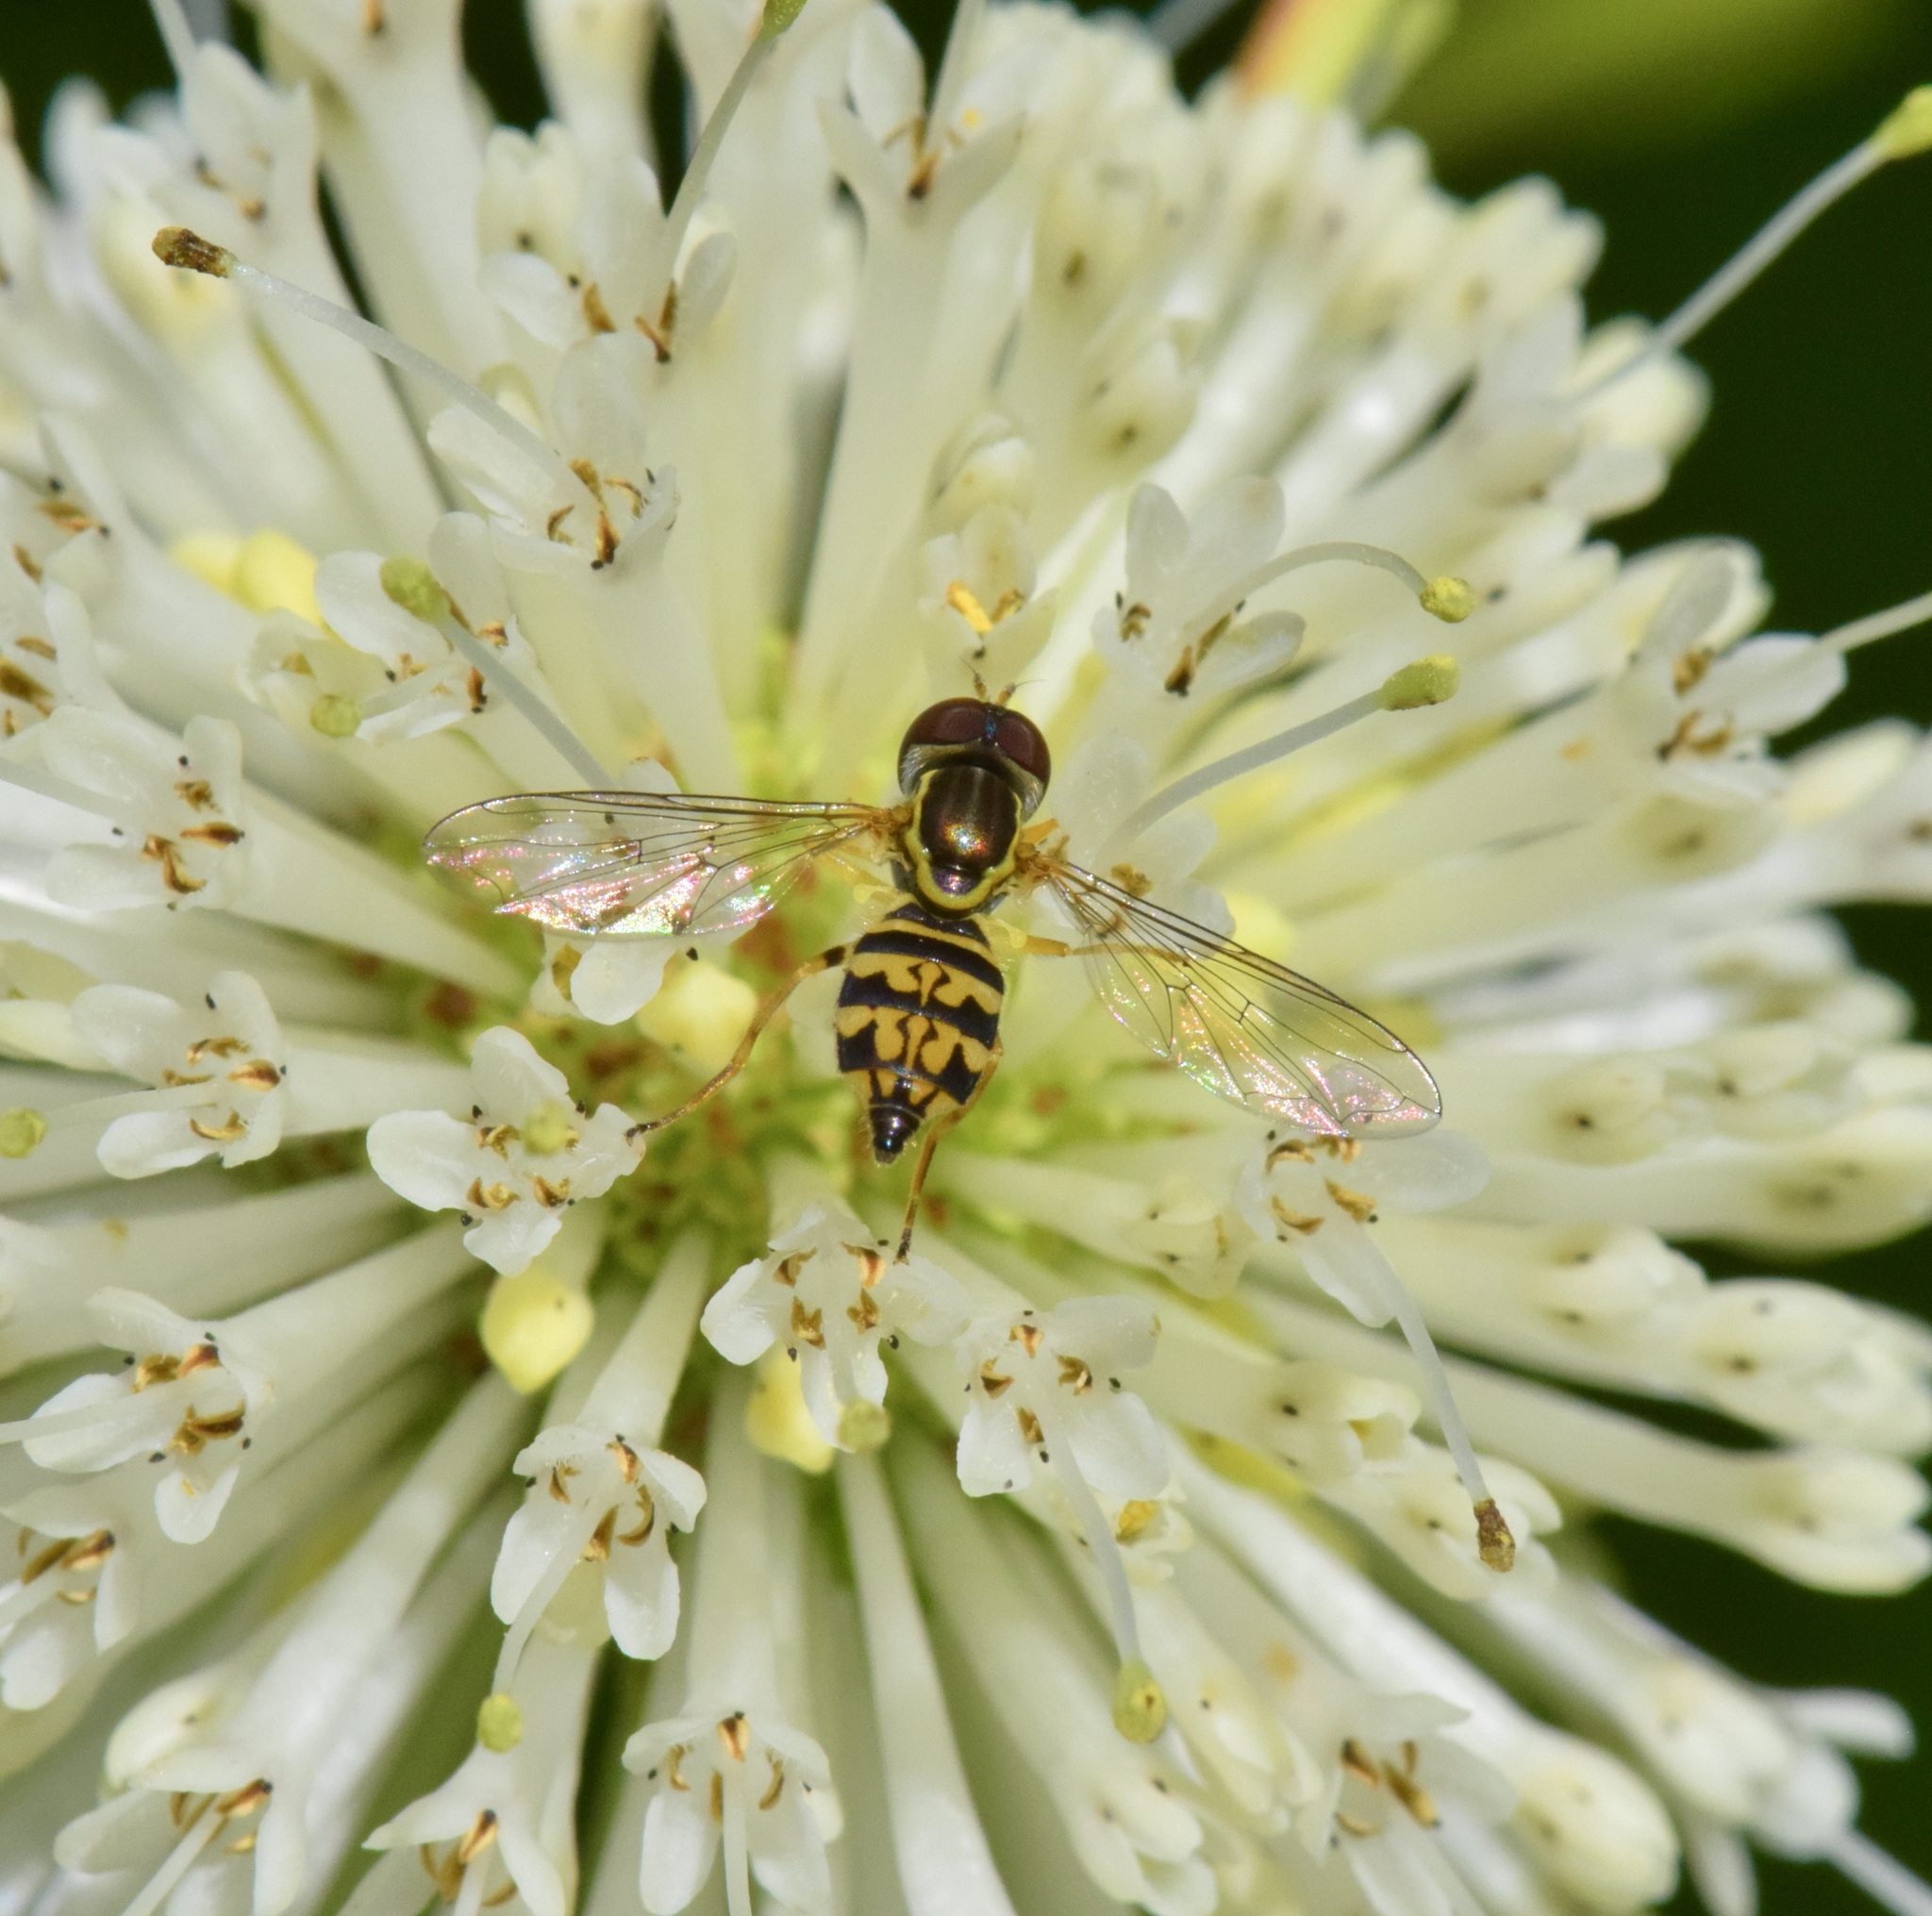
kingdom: Animalia
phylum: Arthropoda
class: Insecta
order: Diptera
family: Syrphidae
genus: Toxomerus
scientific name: Toxomerus geminatus
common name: Eastern calligrapher
